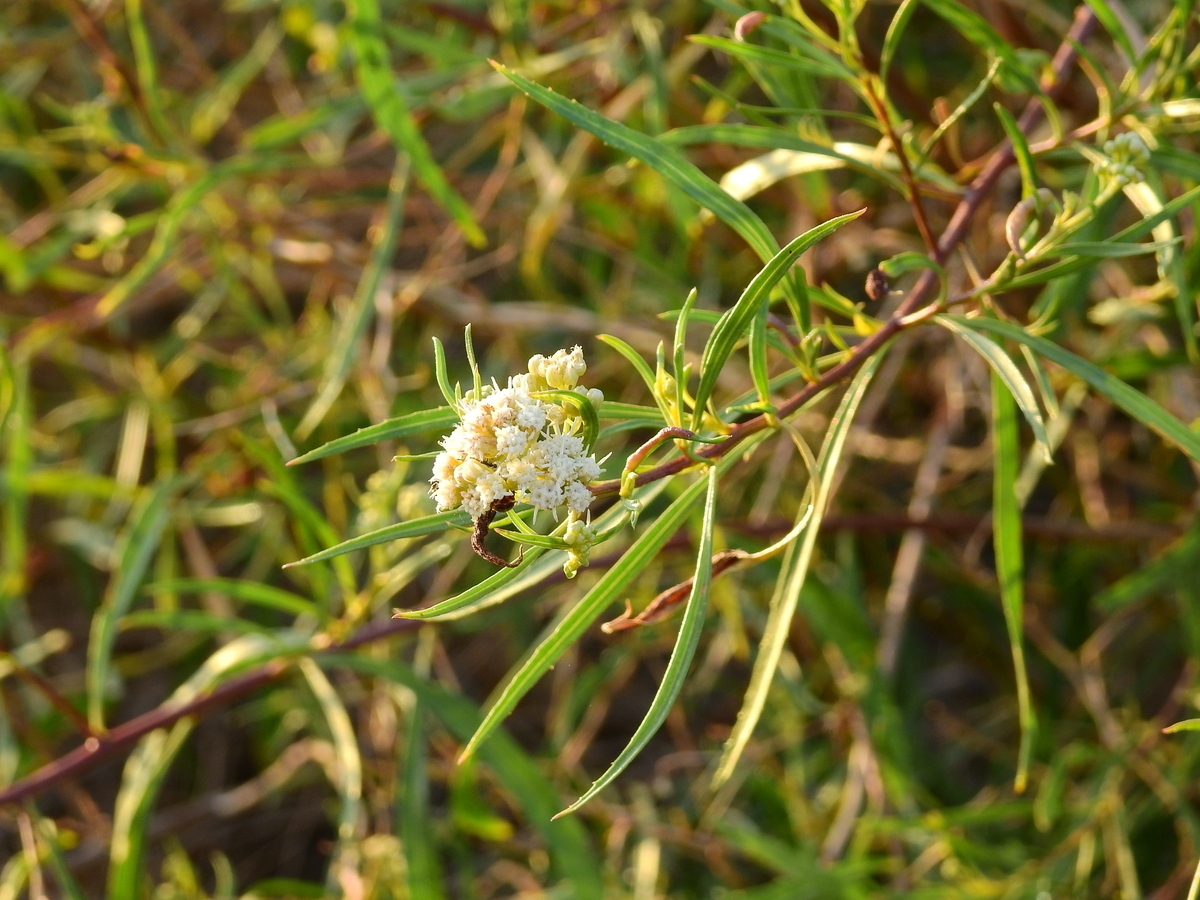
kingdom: Plantae
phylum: Tracheophyta
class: Magnoliopsida
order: Asterales
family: Asteraceae
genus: Baccharis
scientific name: Baccharis salicifolia
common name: Sticky baccharis
